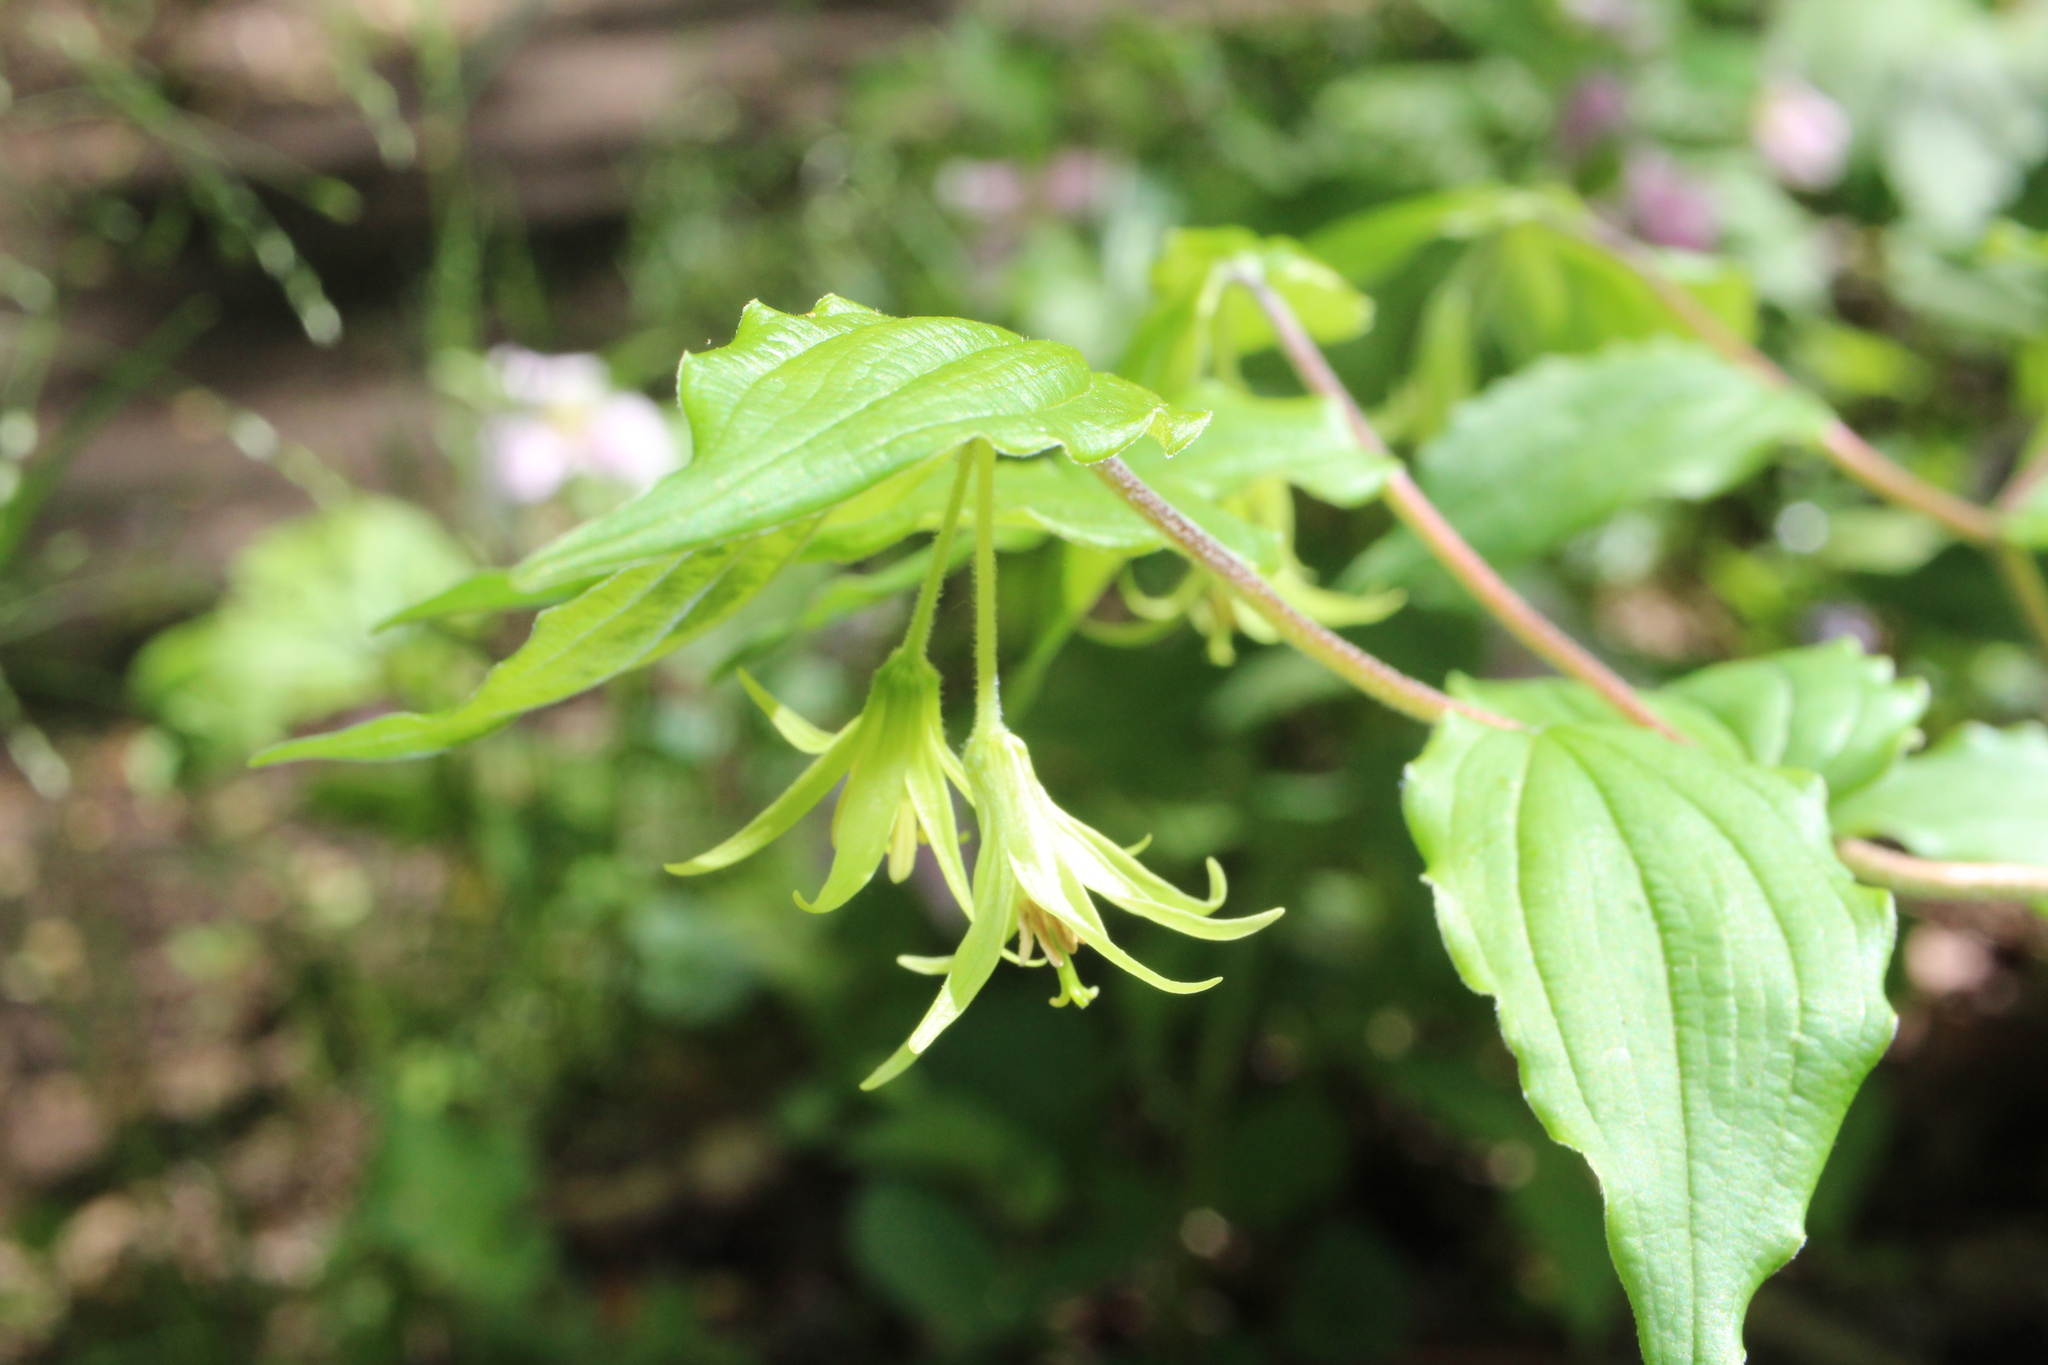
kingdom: Plantae
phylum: Tracheophyta
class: Liliopsida
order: Liliales
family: Liliaceae
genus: Prosartes
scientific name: Prosartes lanuginosa
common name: Hairy mandarin
